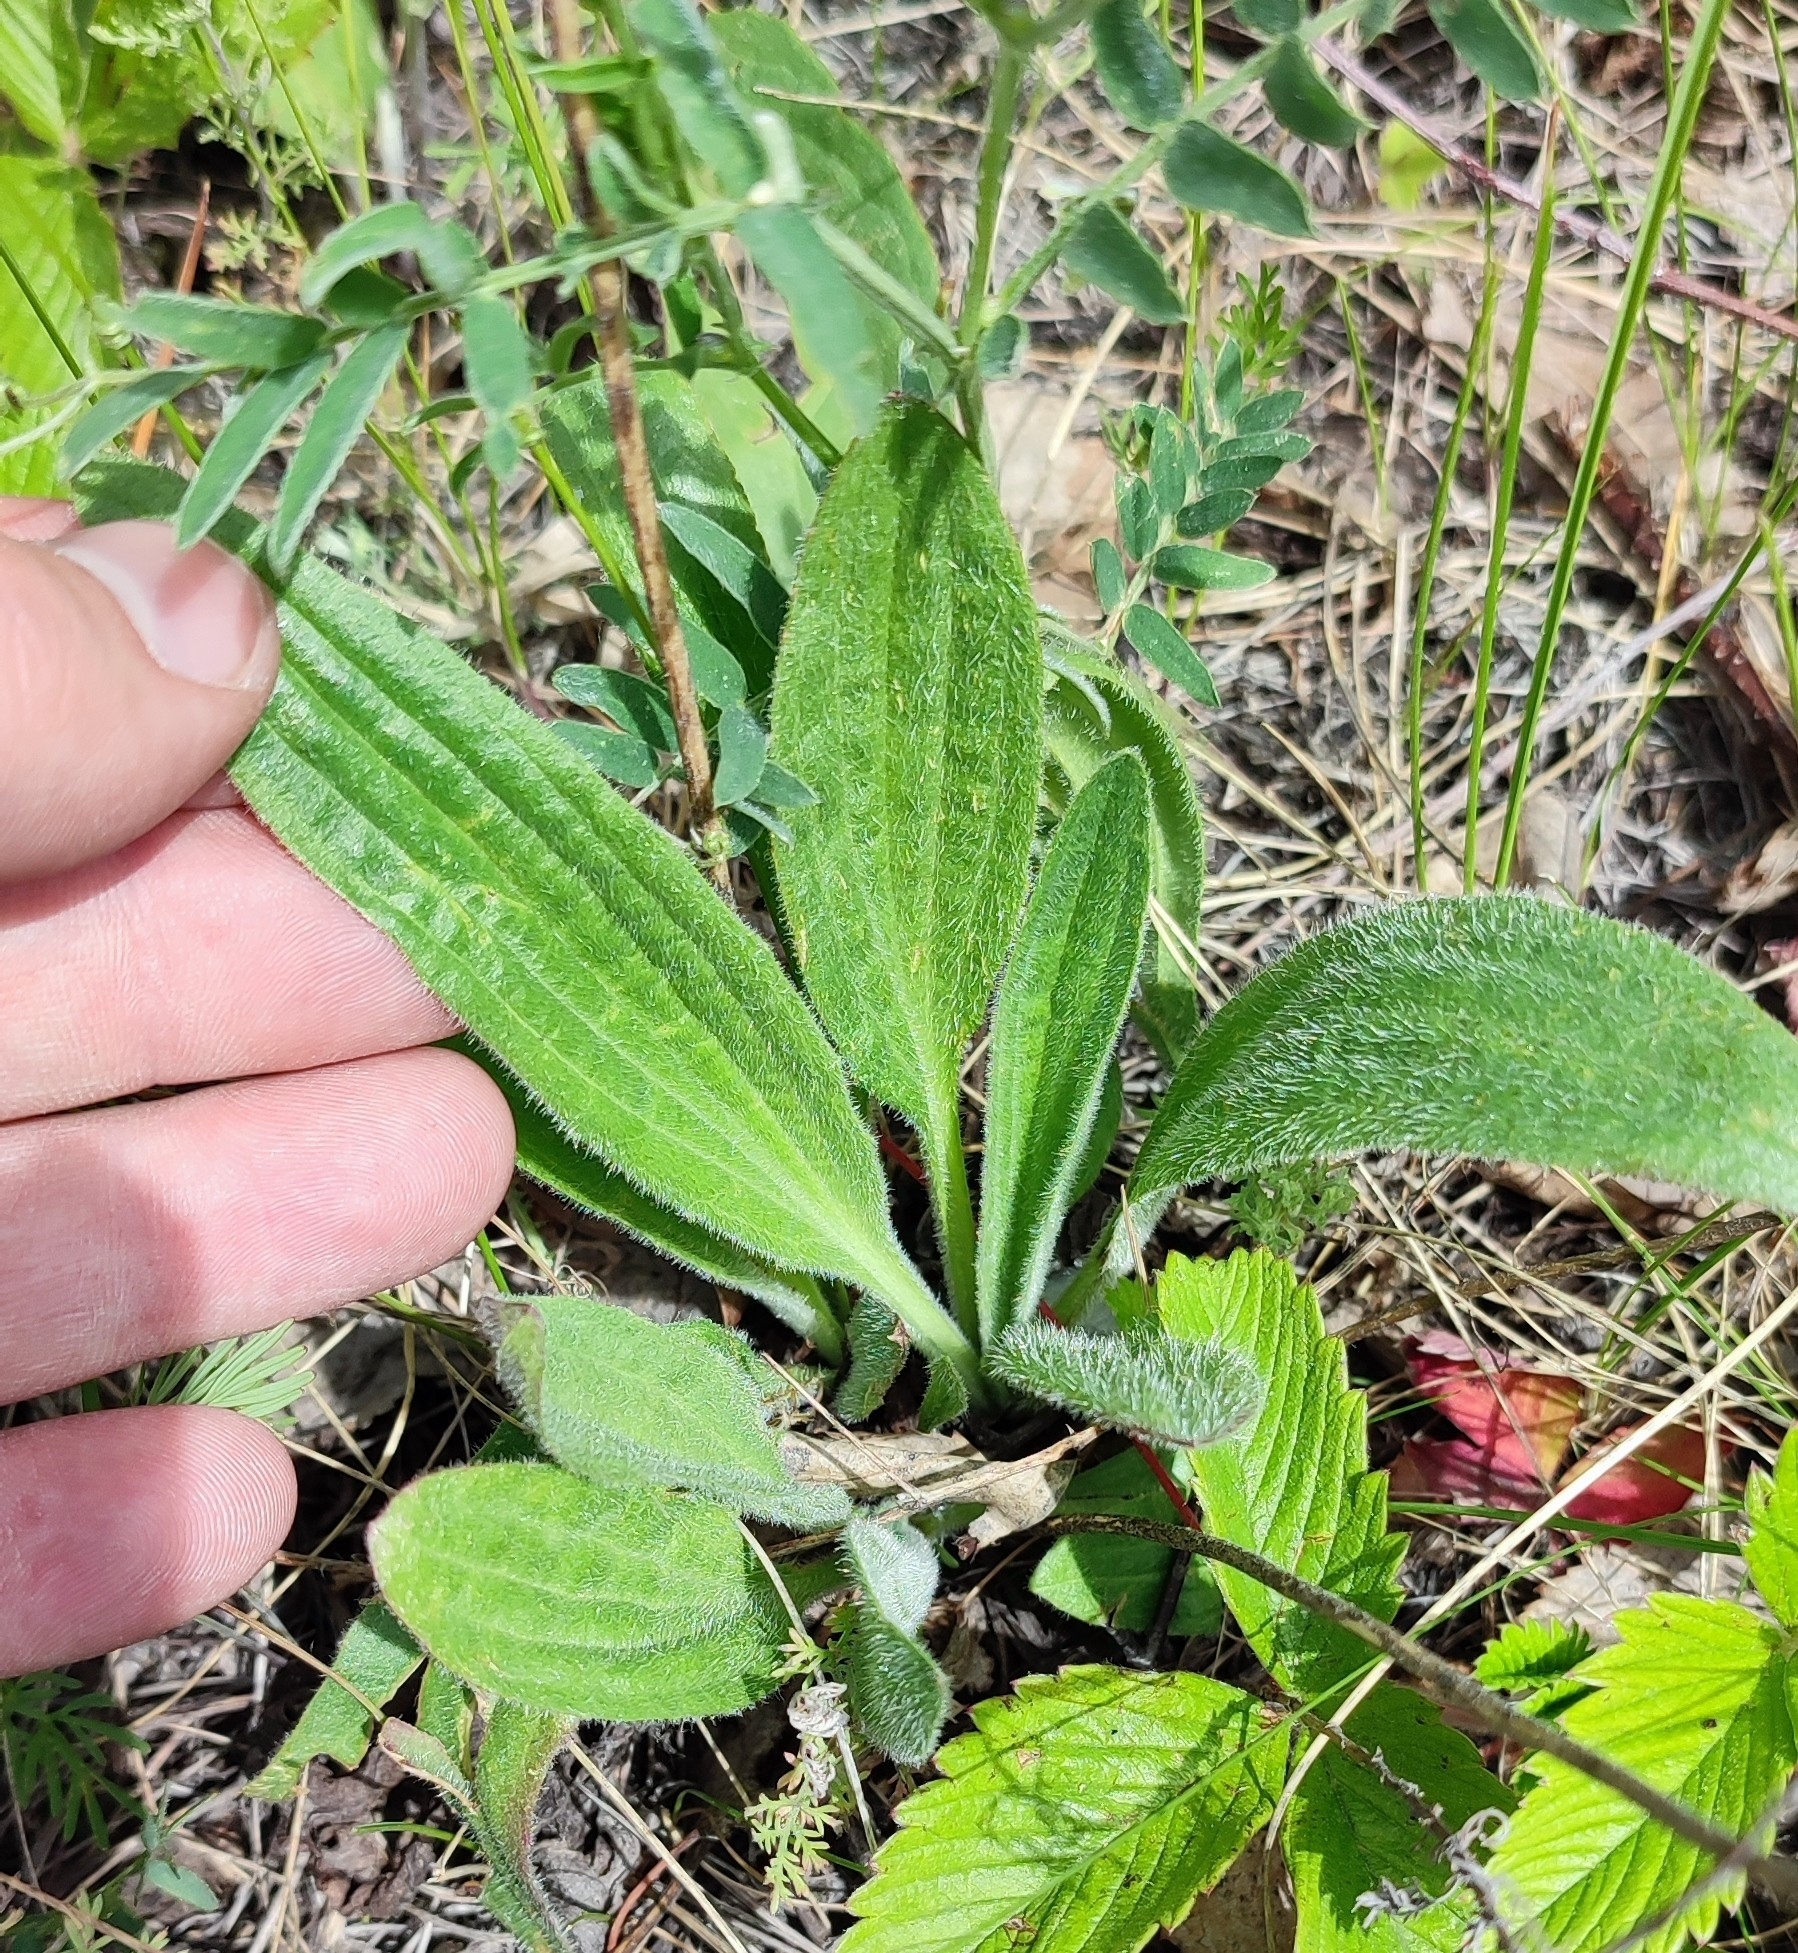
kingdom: Plantae
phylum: Tracheophyta
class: Magnoliopsida
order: Lamiales
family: Plantaginaceae
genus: Plantago
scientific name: Plantago urvillei
